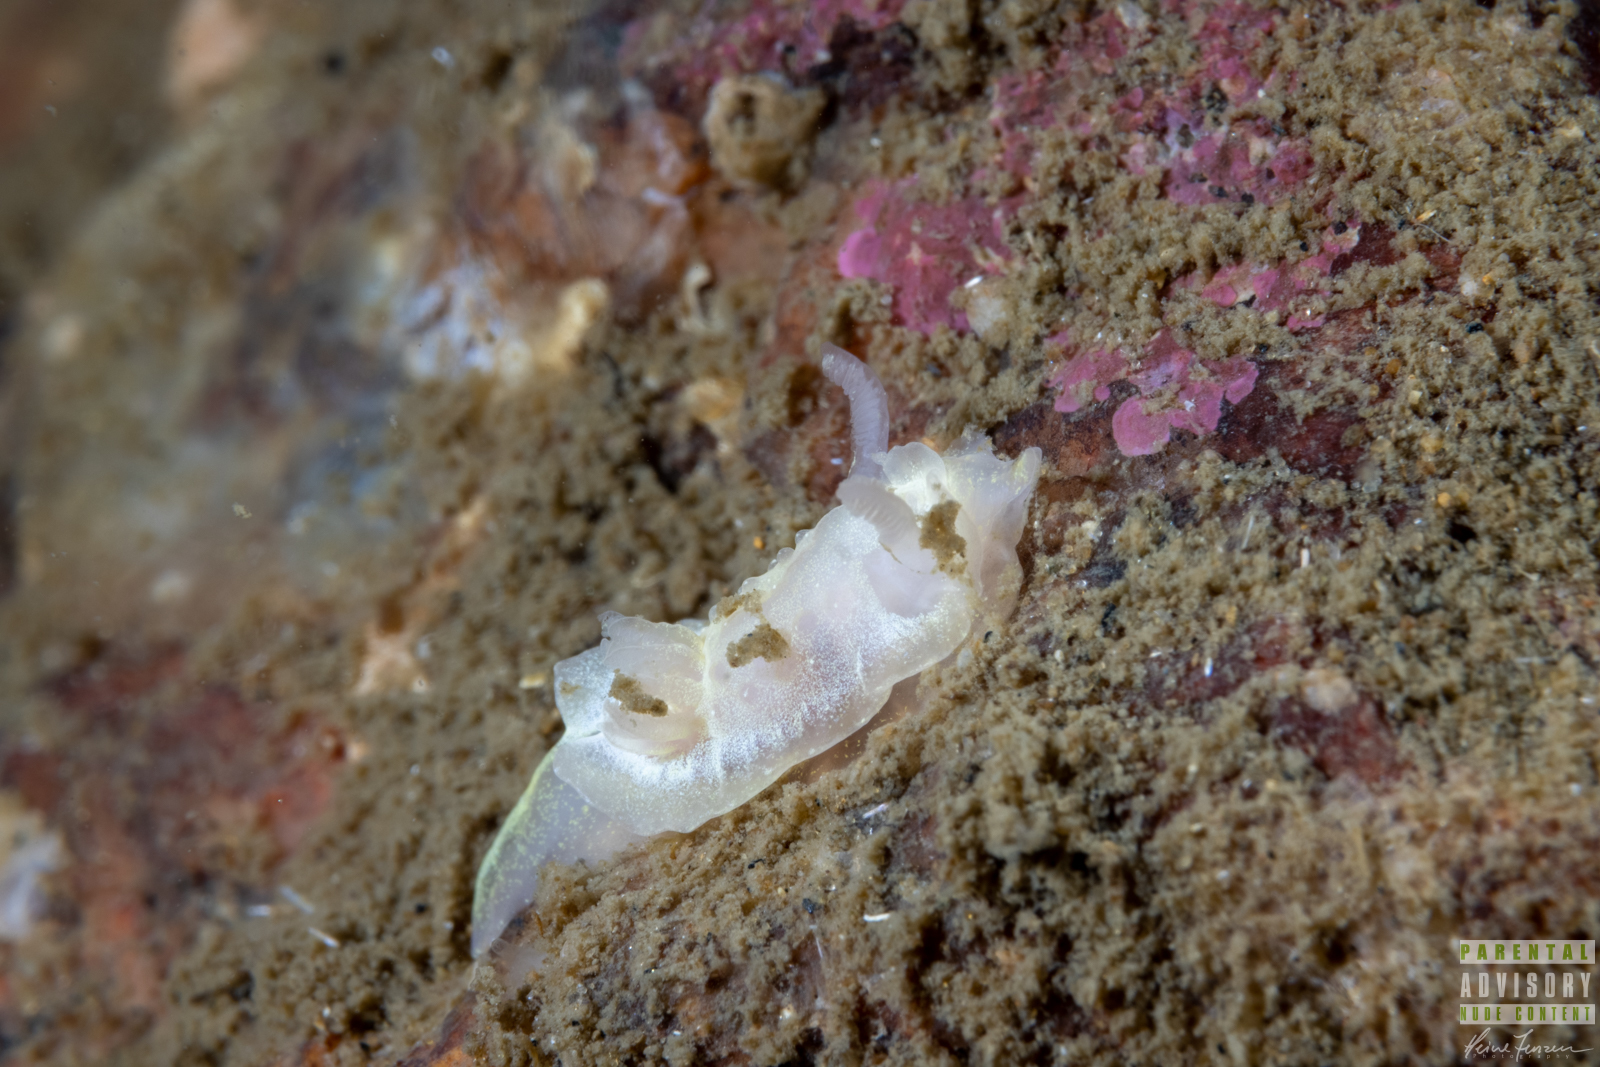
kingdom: Animalia
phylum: Mollusca
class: Gastropoda
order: Nudibranchia
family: Goniodorididae
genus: Okenia
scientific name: Okenia
